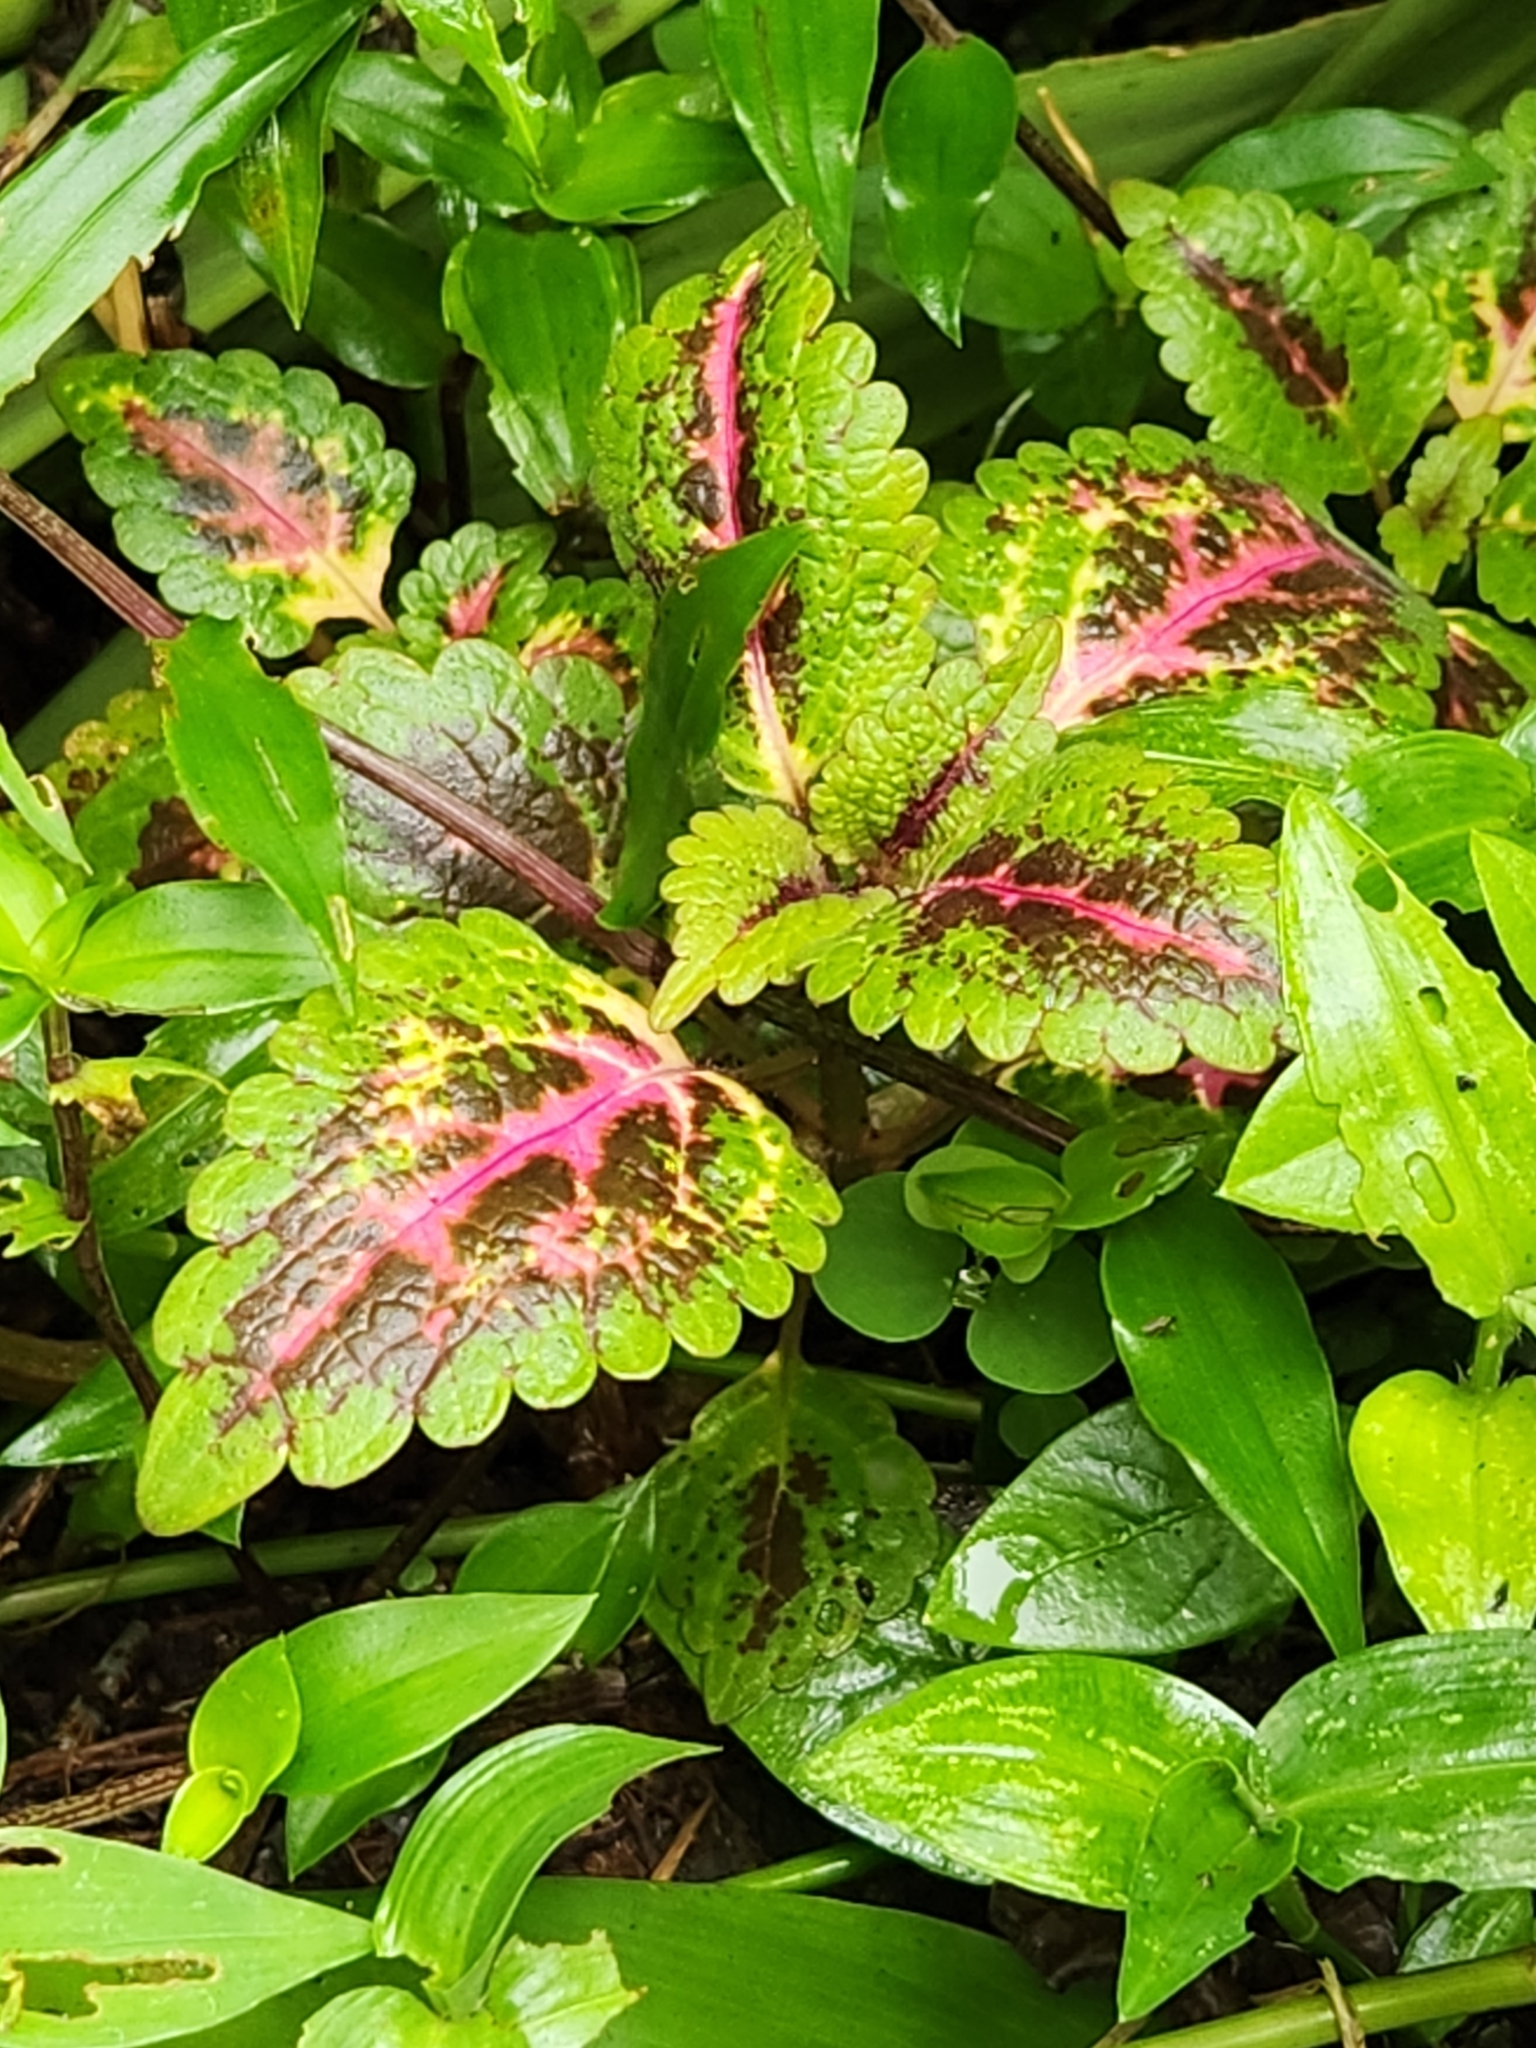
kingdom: Plantae
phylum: Tracheophyta
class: Magnoliopsida
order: Lamiales
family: Lamiaceae
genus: Coleus
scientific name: Coleus scutellarioides
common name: Coleus
